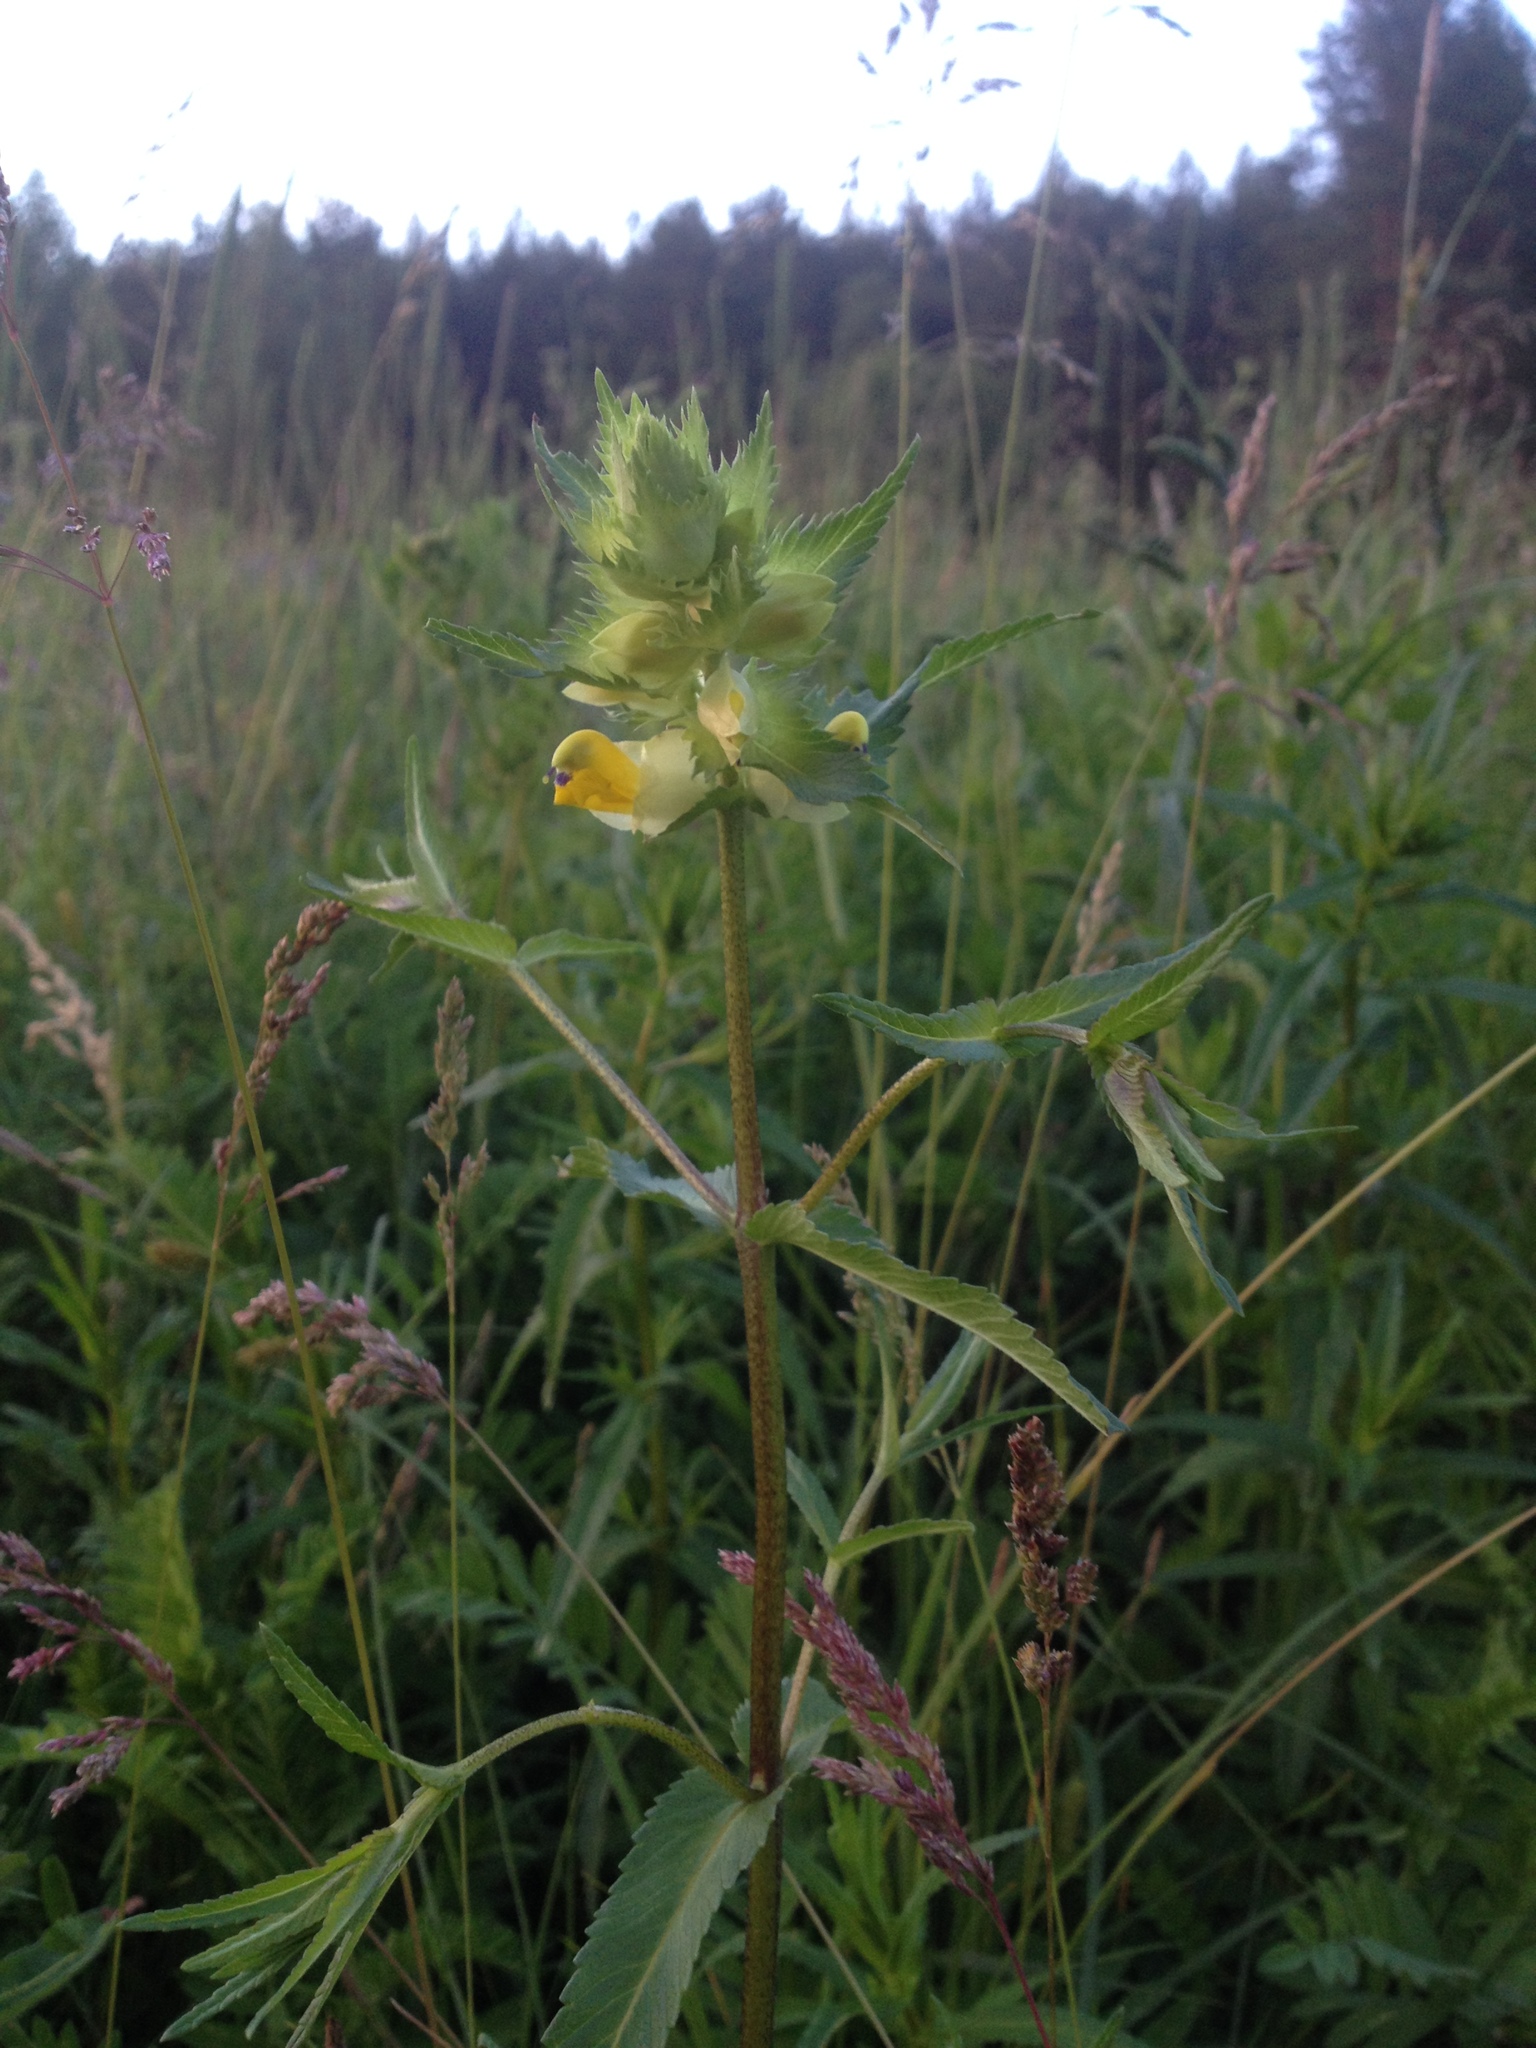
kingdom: Plantae
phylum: Tracheophyta
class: Magnoliopsida
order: Lamiales
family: Orobanchaceae
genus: Rhinanthus
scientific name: Rhinanthus minor
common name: Yellow-rattle
